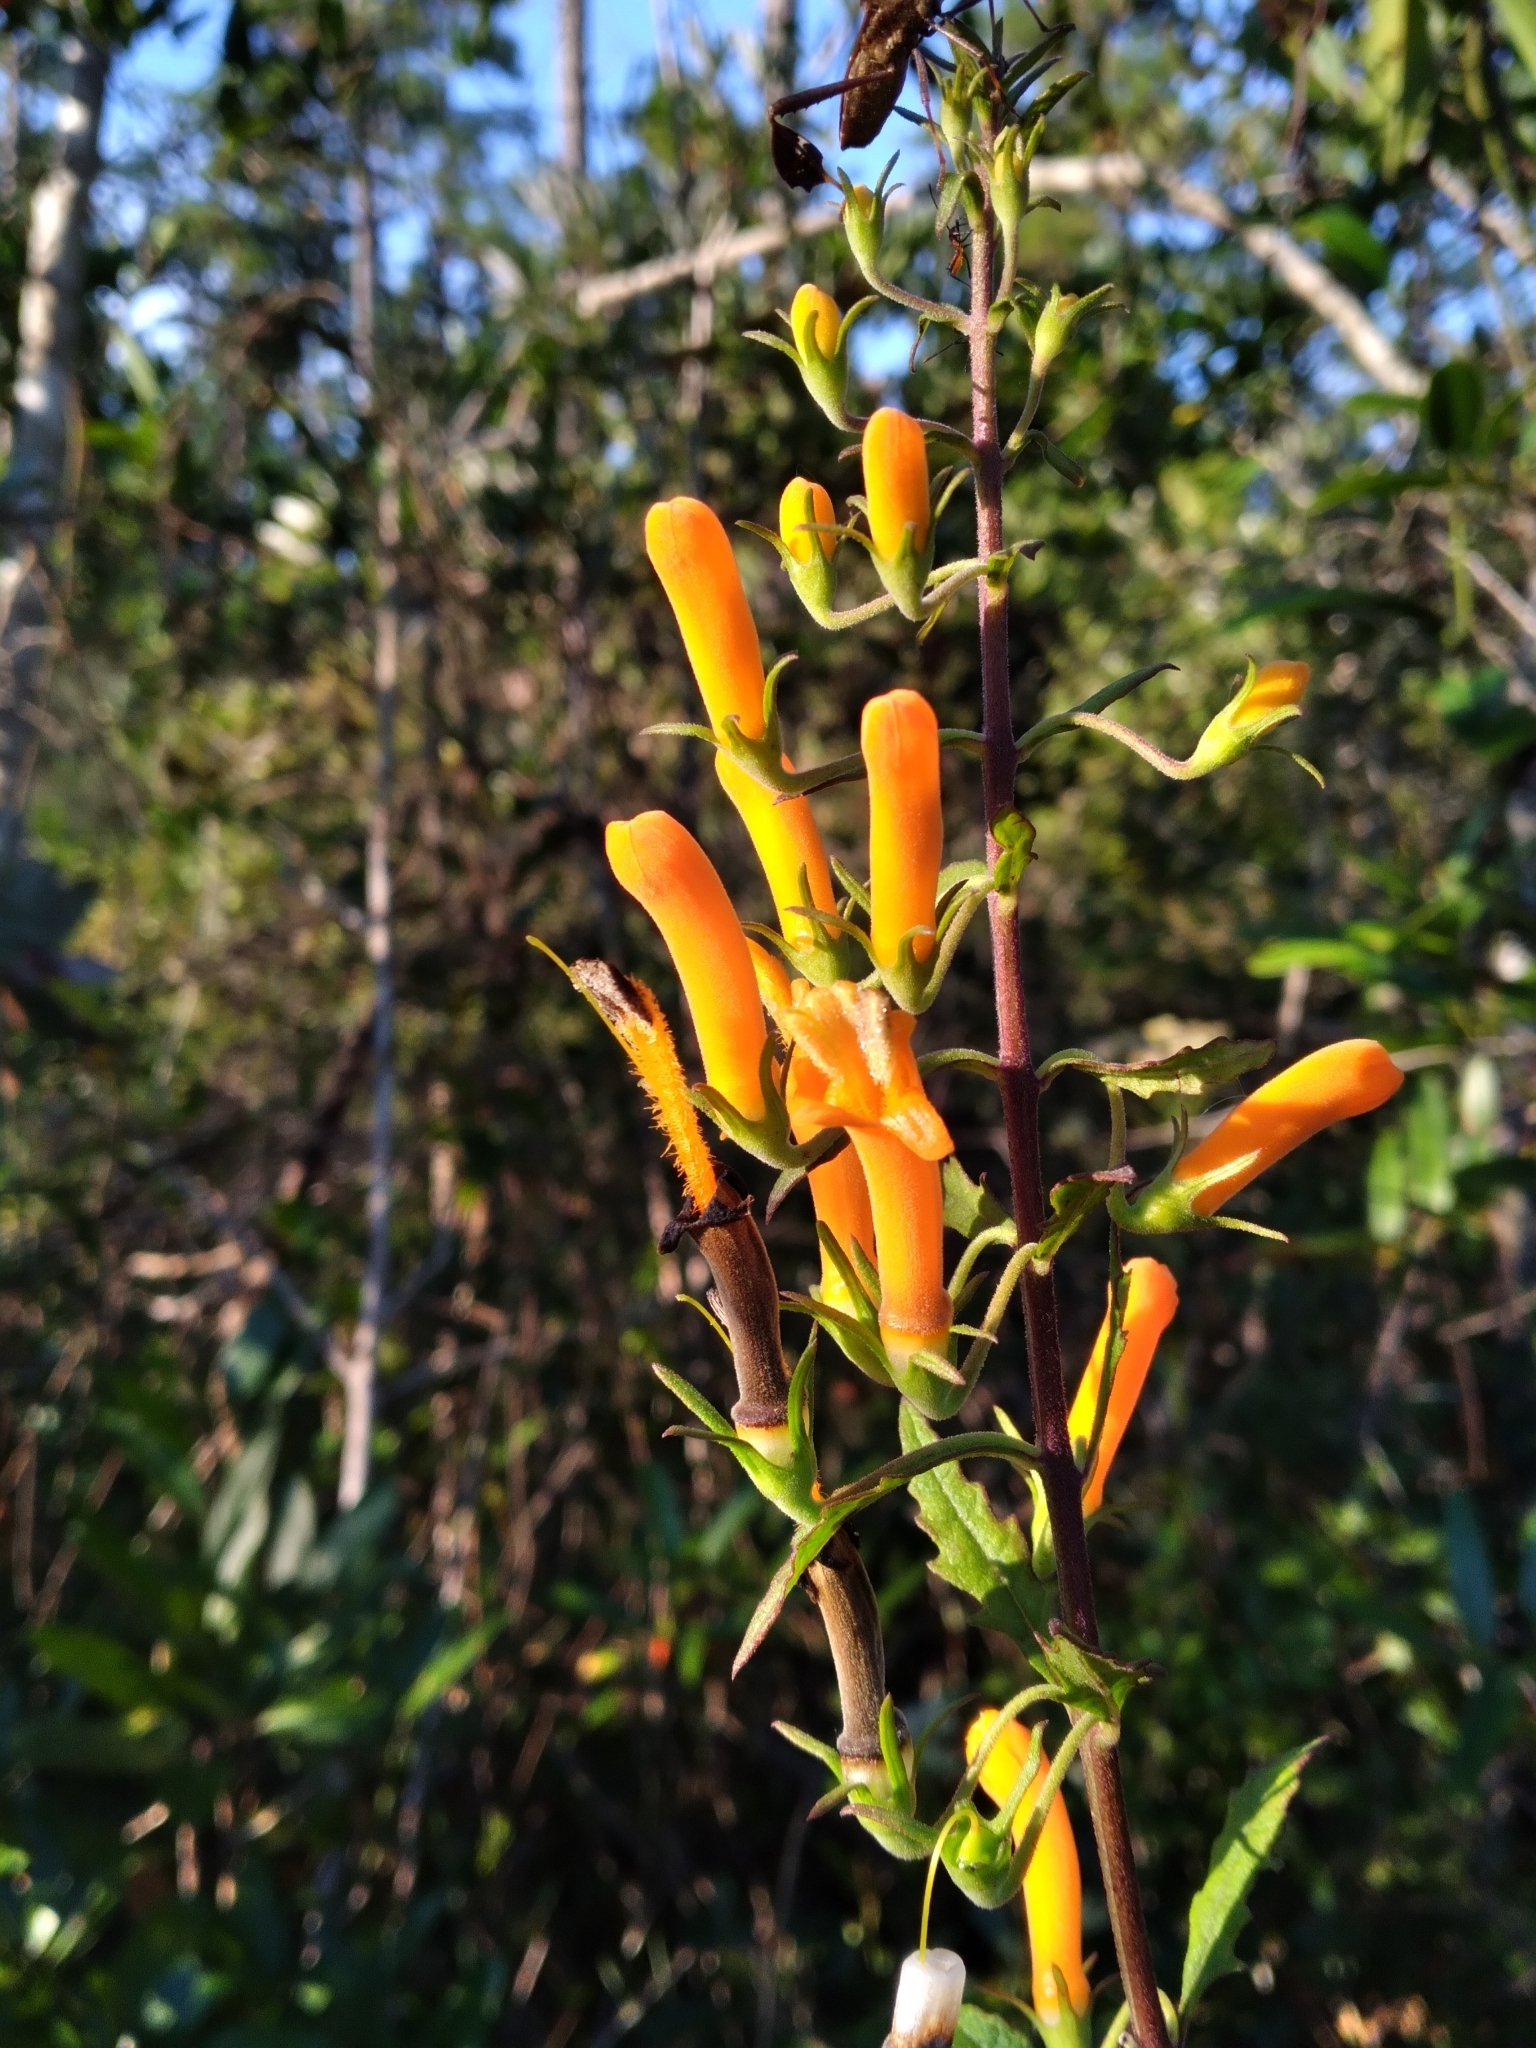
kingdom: Plantae
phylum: Tracheophyta
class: Magnoliopsida
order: Lamiales
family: Orobanchaceae
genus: Macranthera
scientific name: Macranthera flammea
